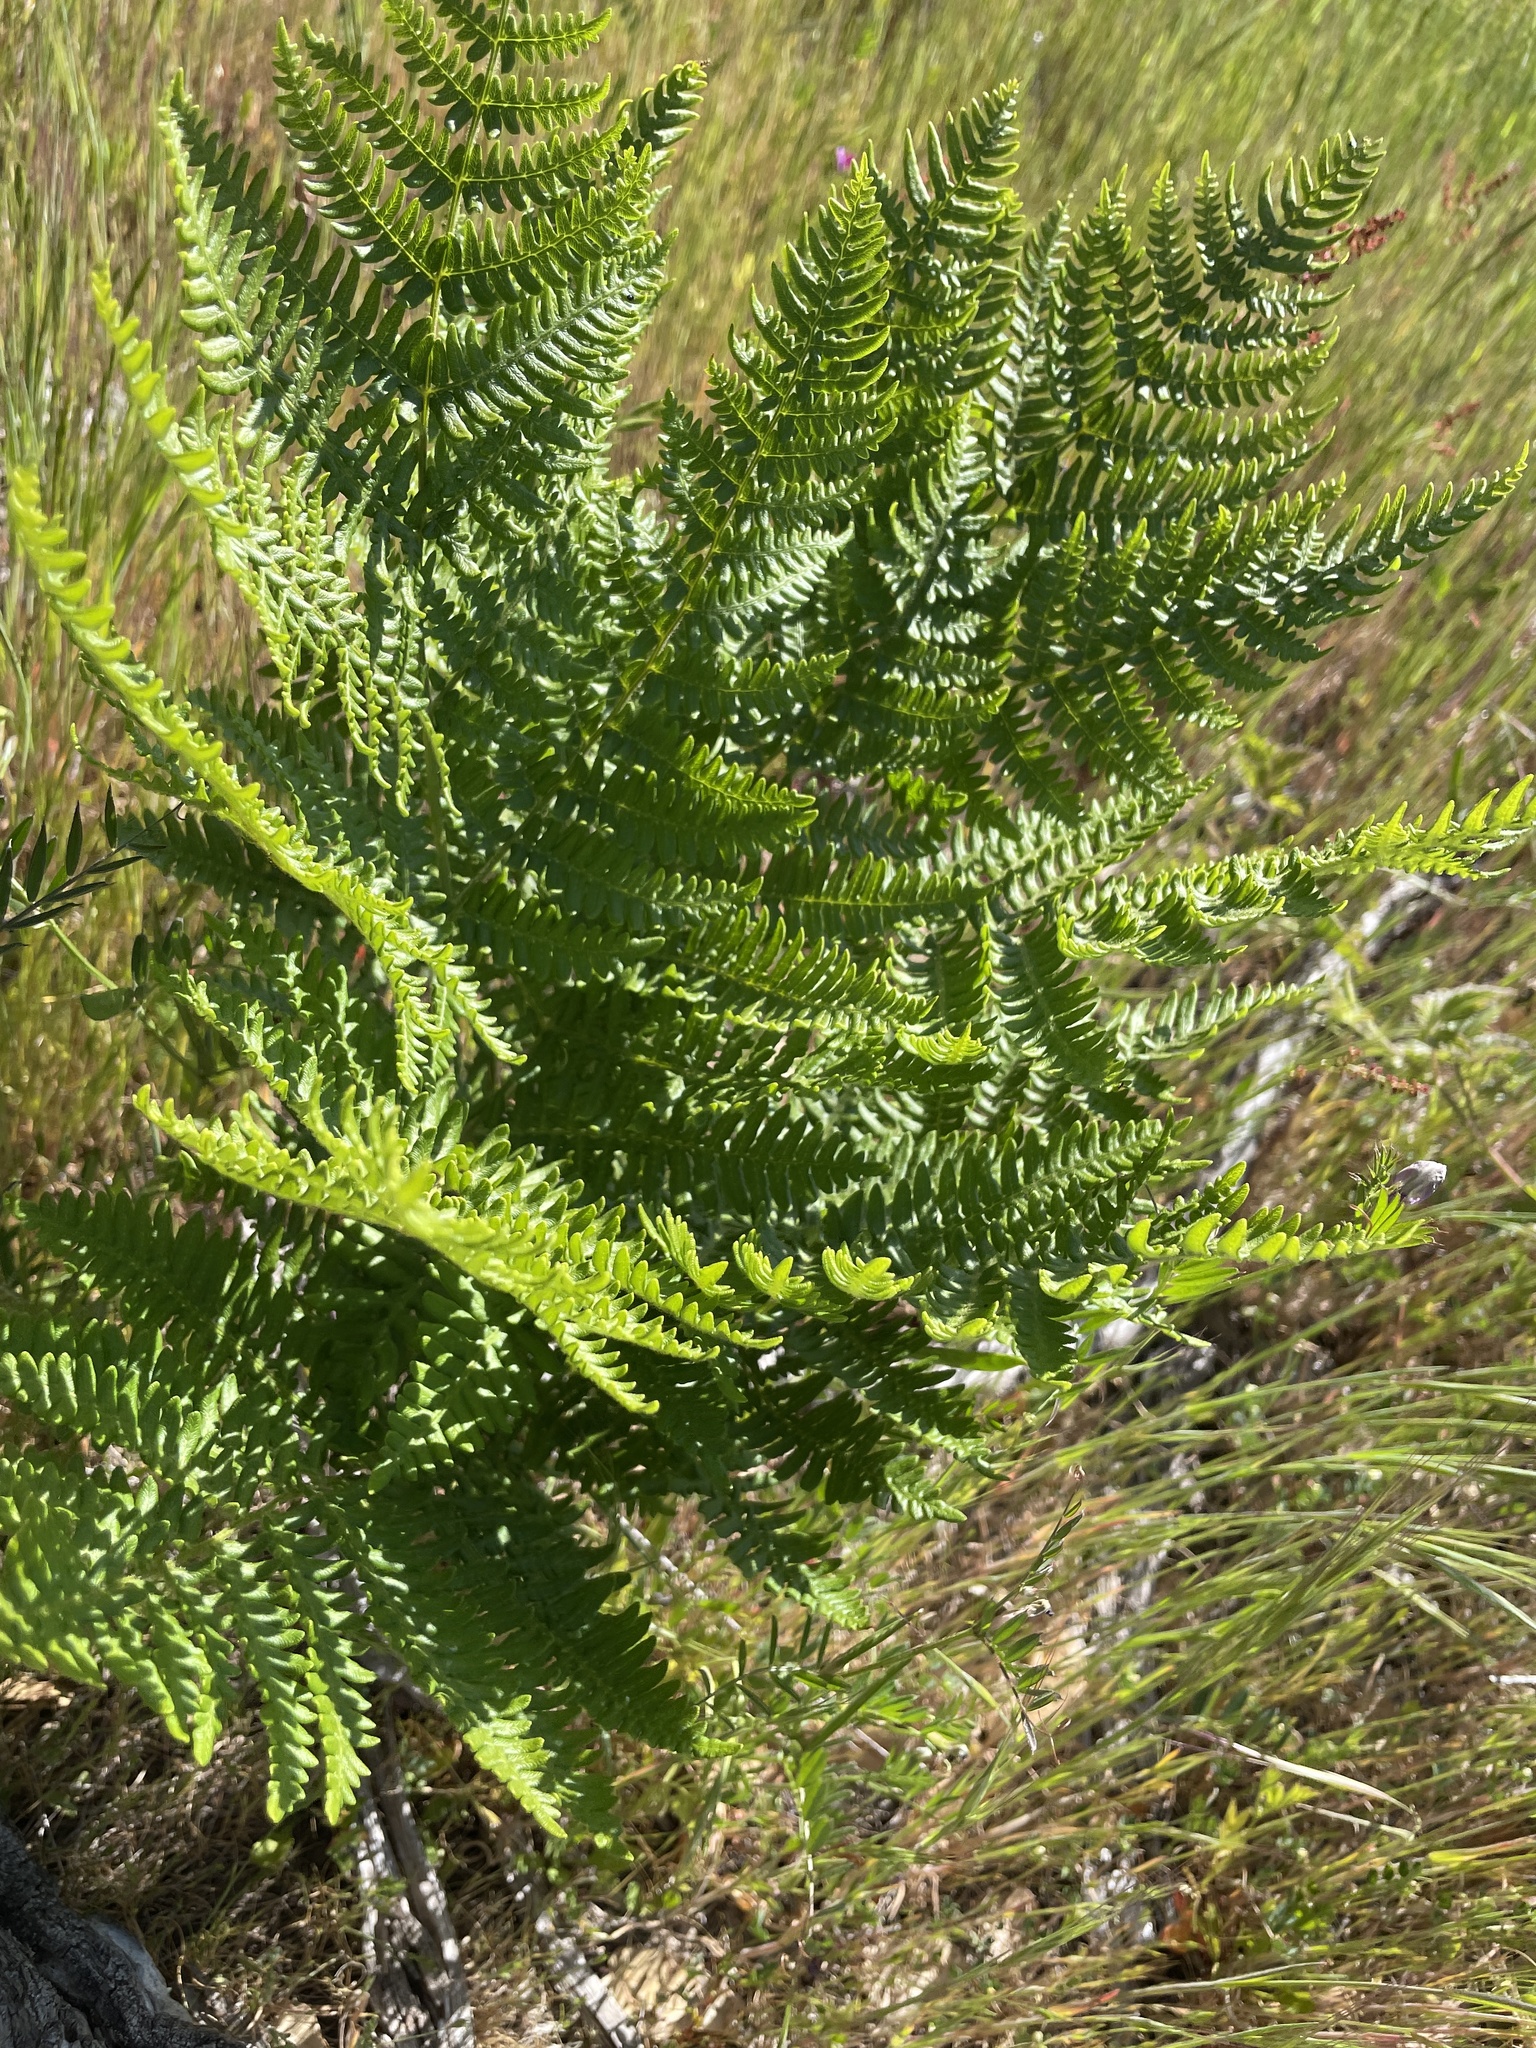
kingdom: Plantae
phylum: Tracheophyta
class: Polypodiopsida
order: Polypodiales
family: Dennstaedtiaceae
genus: Pteridium
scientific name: Pteridium aquilinum
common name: Bracken
